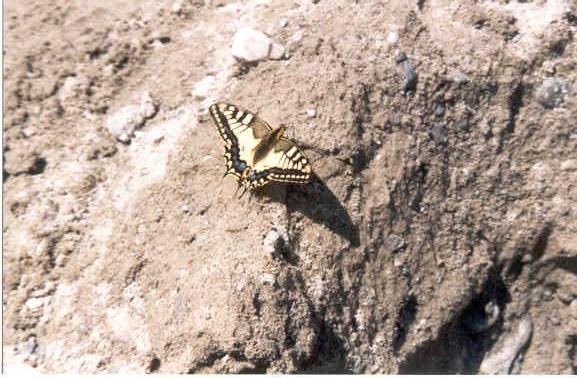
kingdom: Animalia
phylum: Arthropoda
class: Insecta
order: Lepidoptera
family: Papilionidae
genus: Papilio
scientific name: Papilio machaon
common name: Swallowtail
